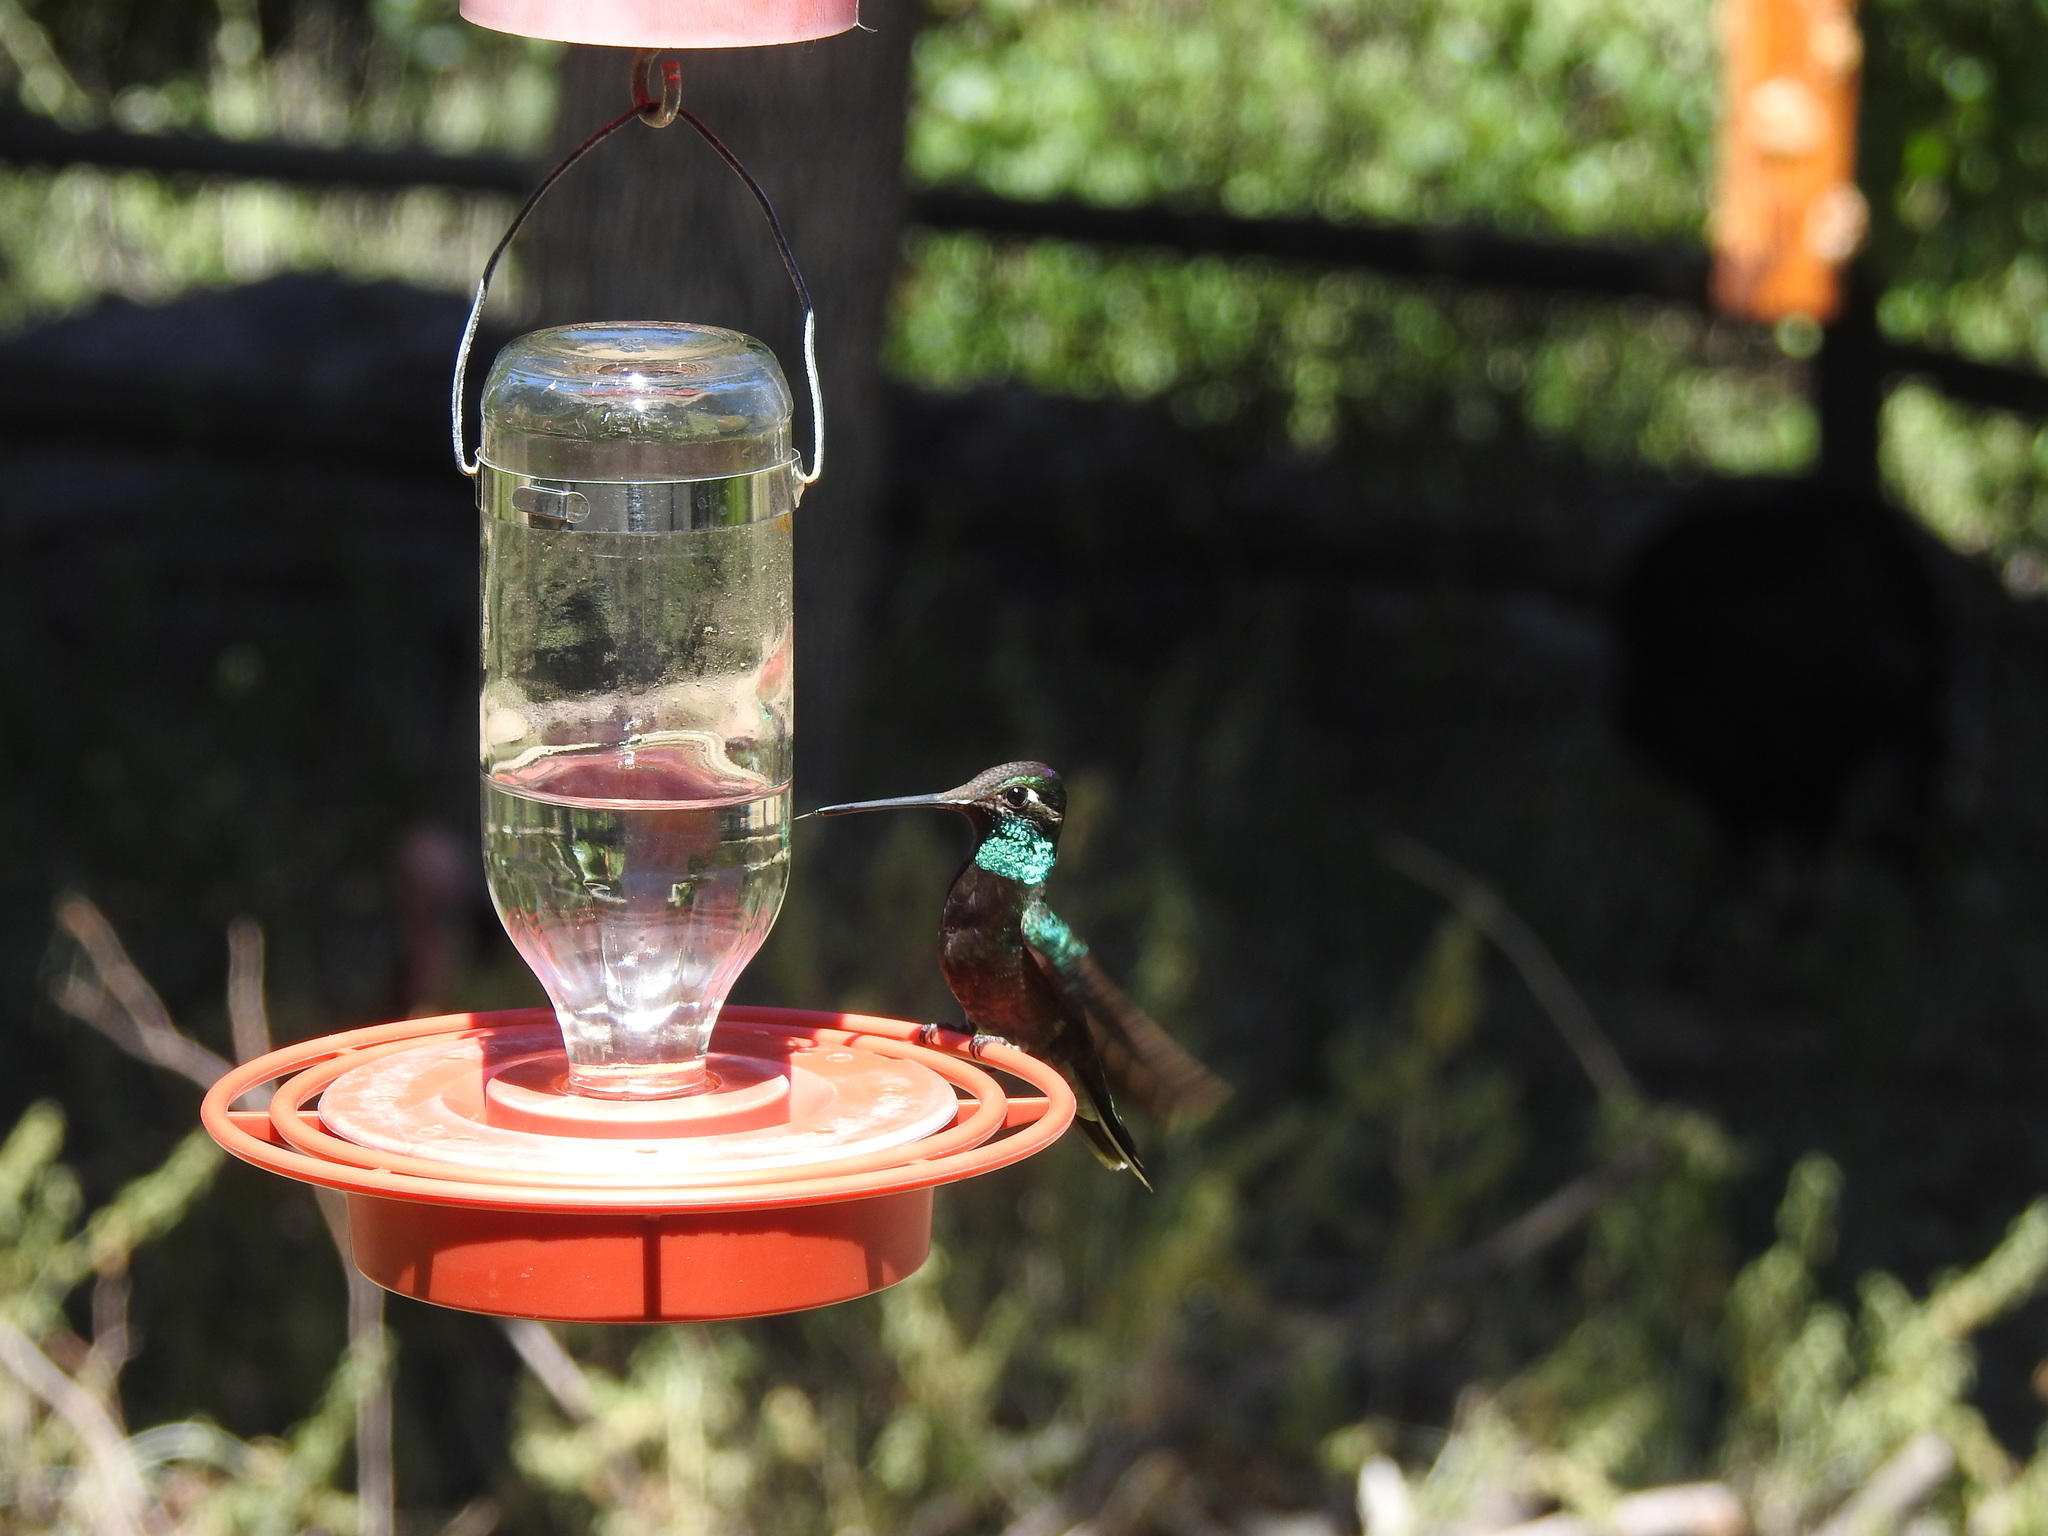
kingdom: Animalia
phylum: Chordata
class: Aves
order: Apodiformes
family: Trochilidae
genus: Eugenes
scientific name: Eugenes fulgens
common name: Magnificent hummingbird
